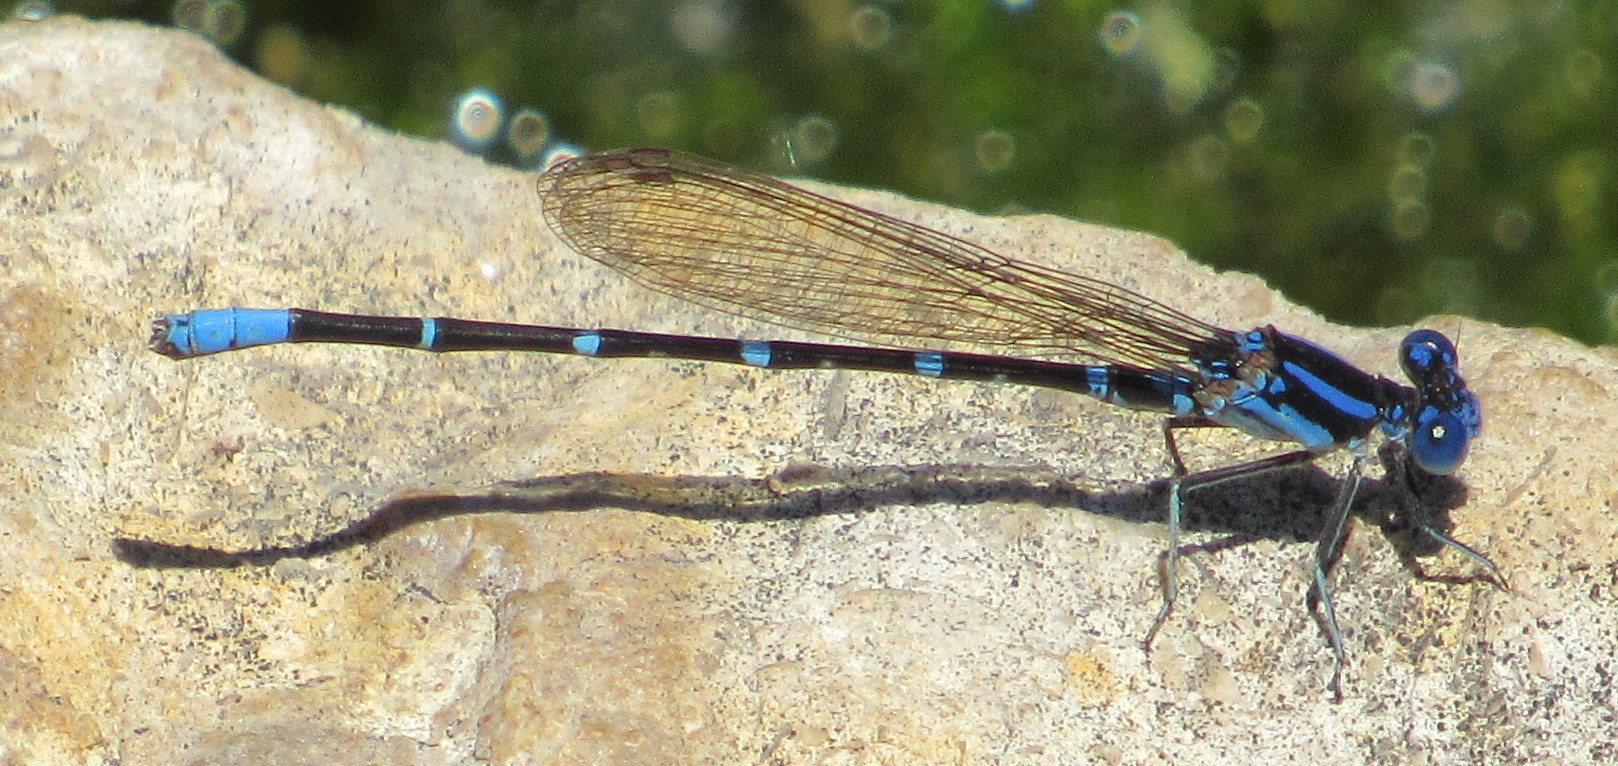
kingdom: Animalia
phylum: Arthropoda
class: Insecta
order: Odonata
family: Coenagrionidae
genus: Argia
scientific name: Argia sedula
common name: Blue-ringed dancer
